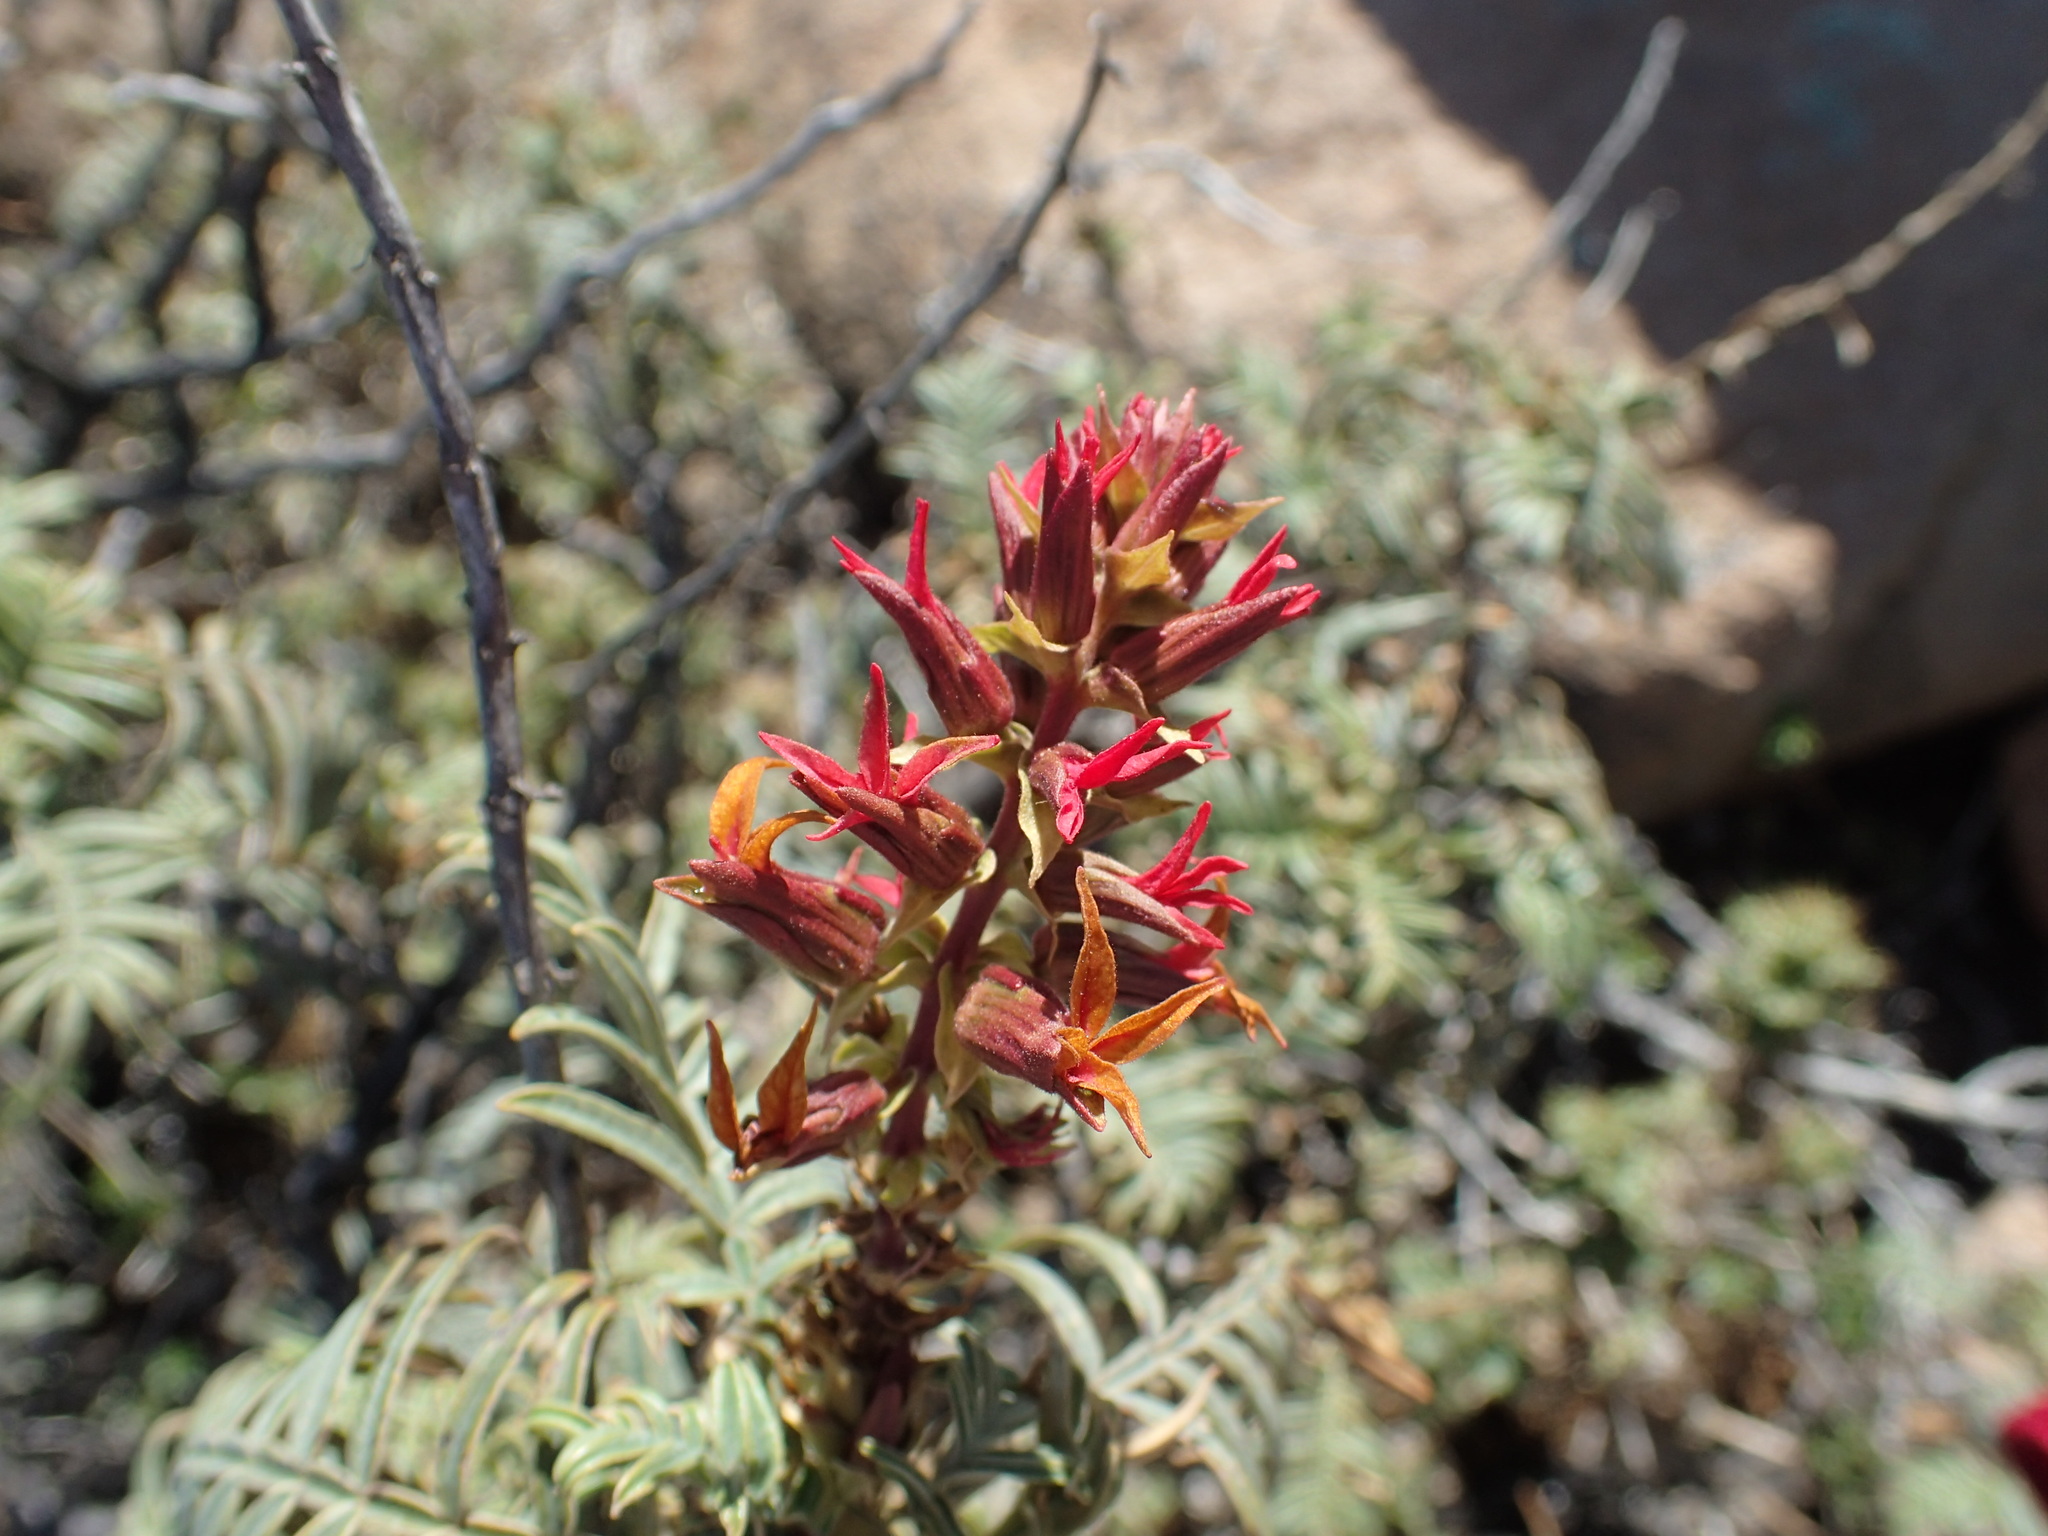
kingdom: Plantae
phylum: Tracheophyta
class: Magnoliopsida
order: Geraniales
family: Melianthaceae
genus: Melianthus
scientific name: Melianthus pectinatus
